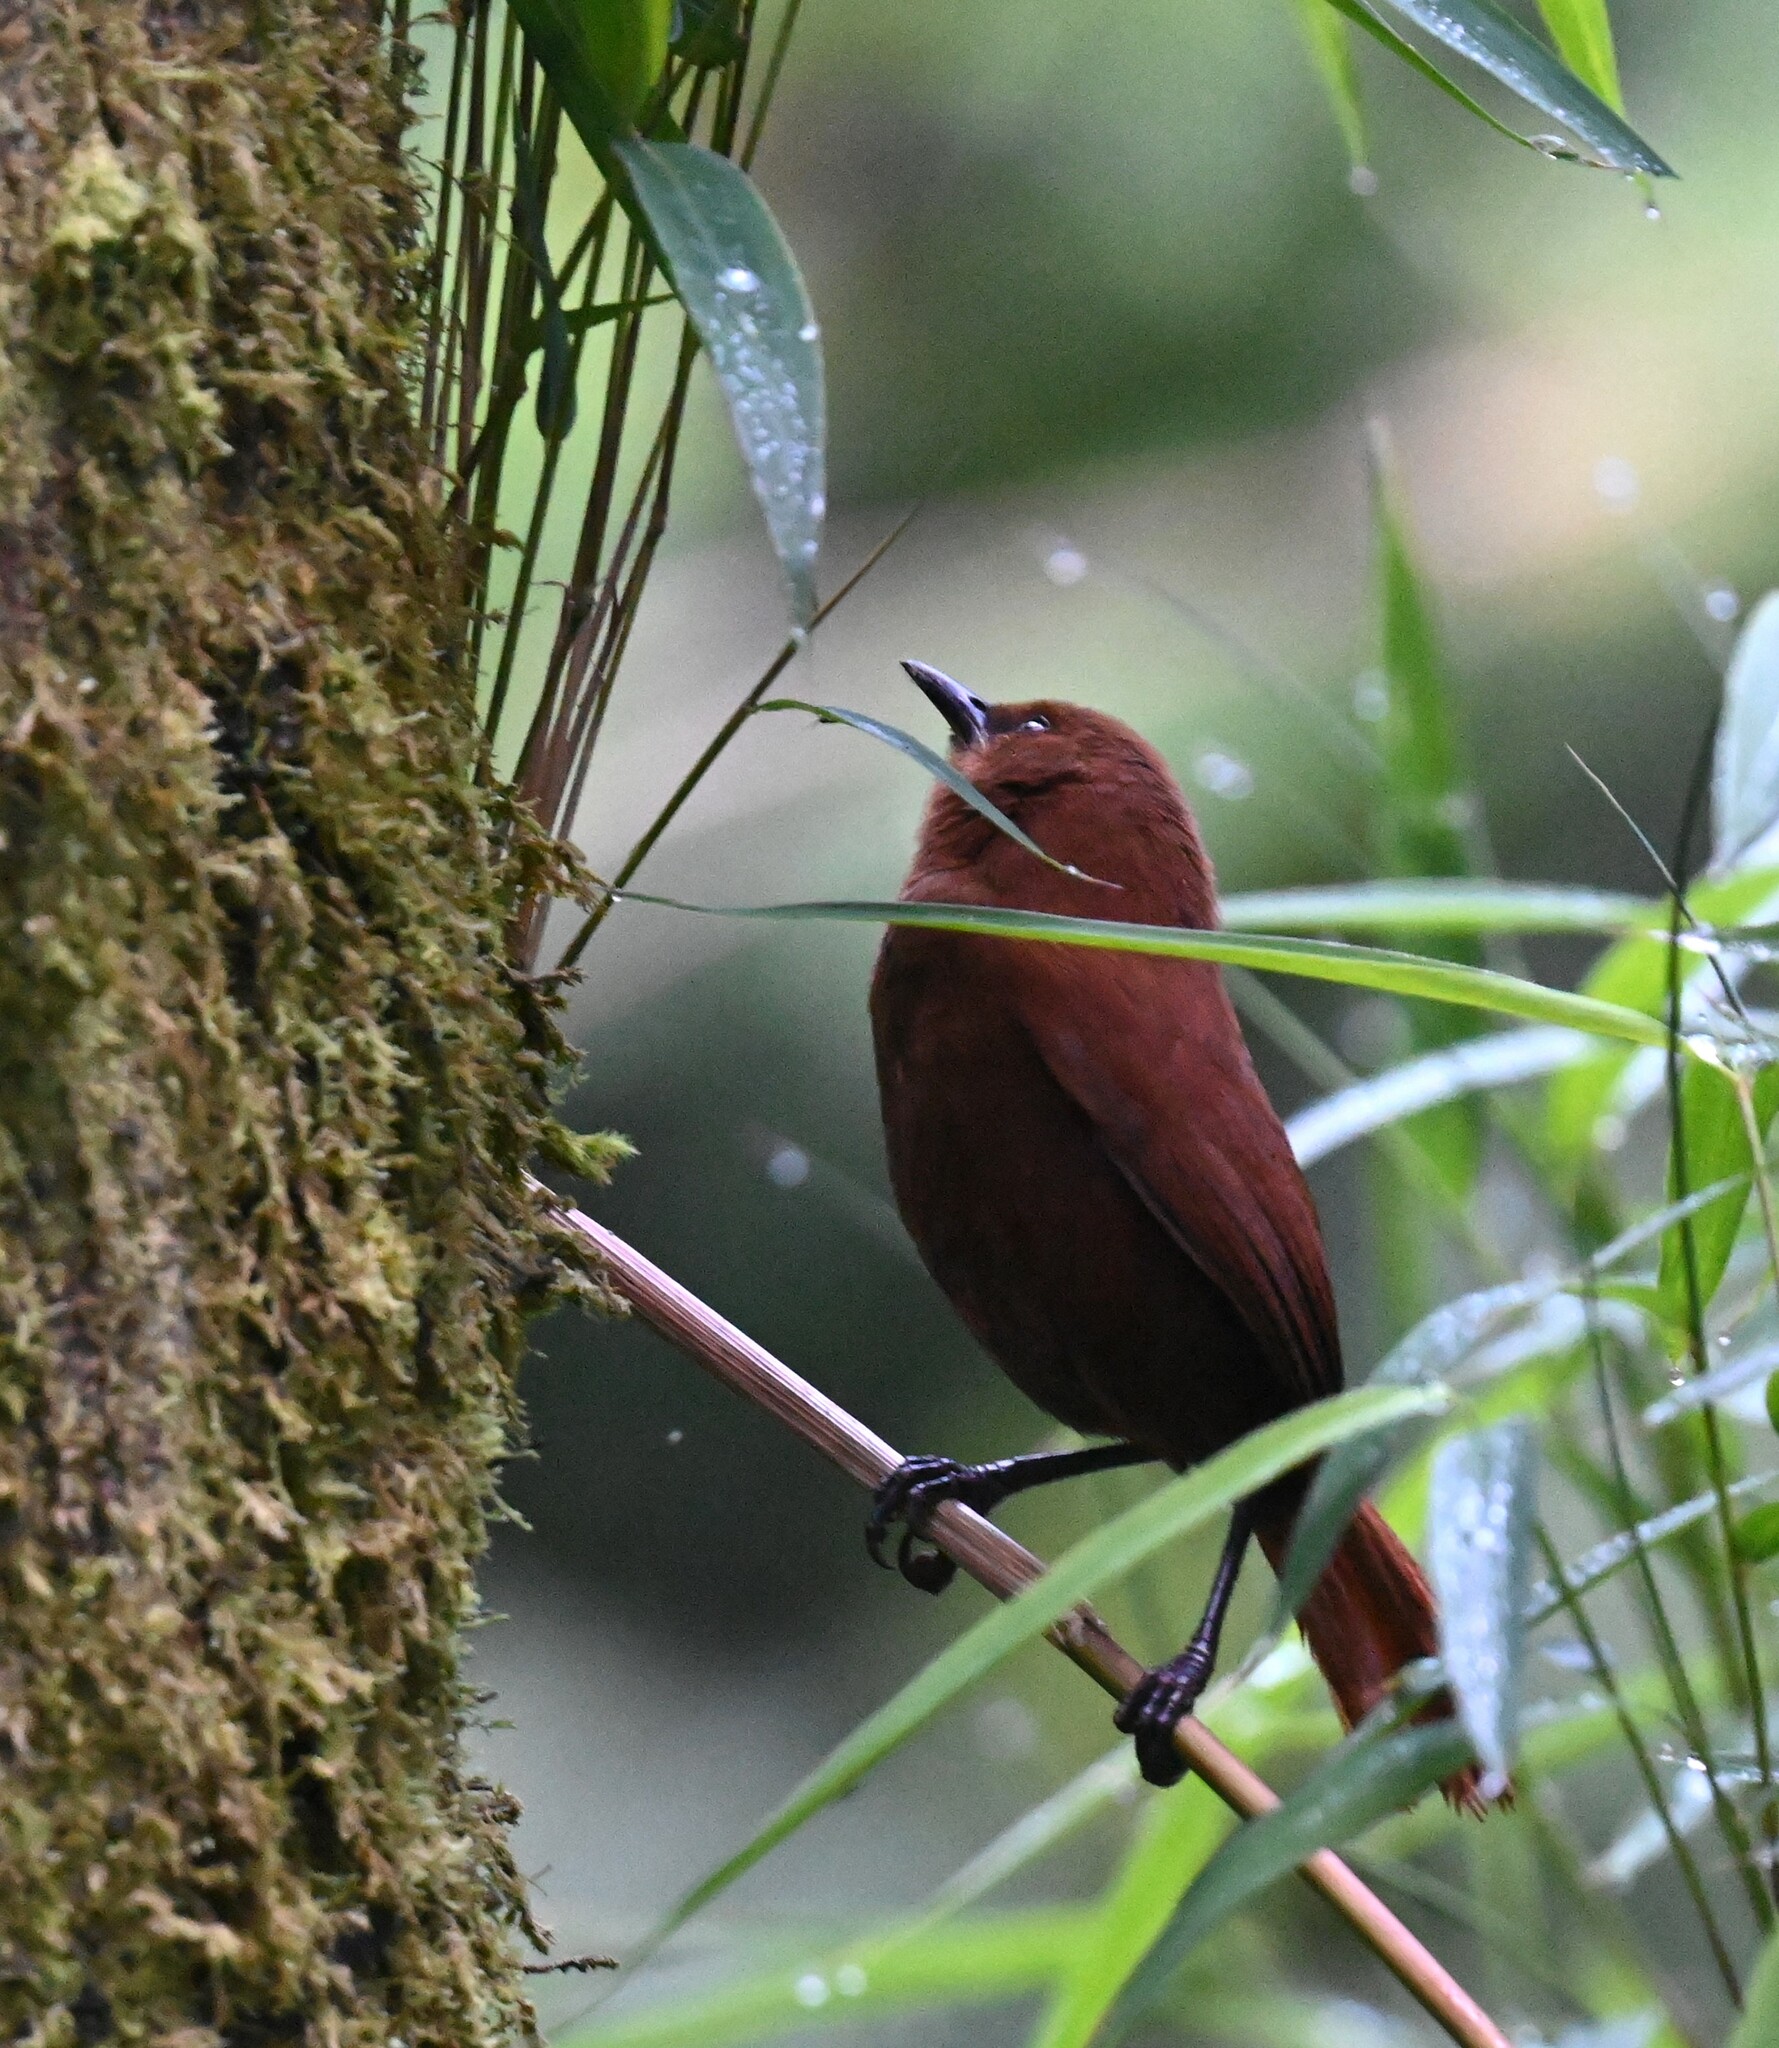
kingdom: Animalia
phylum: Chordata
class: Aves
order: Passeriformes
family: Troglodytidae
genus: Cinnycerthia
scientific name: Cinnycerthia unirufa
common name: Rufous wren
